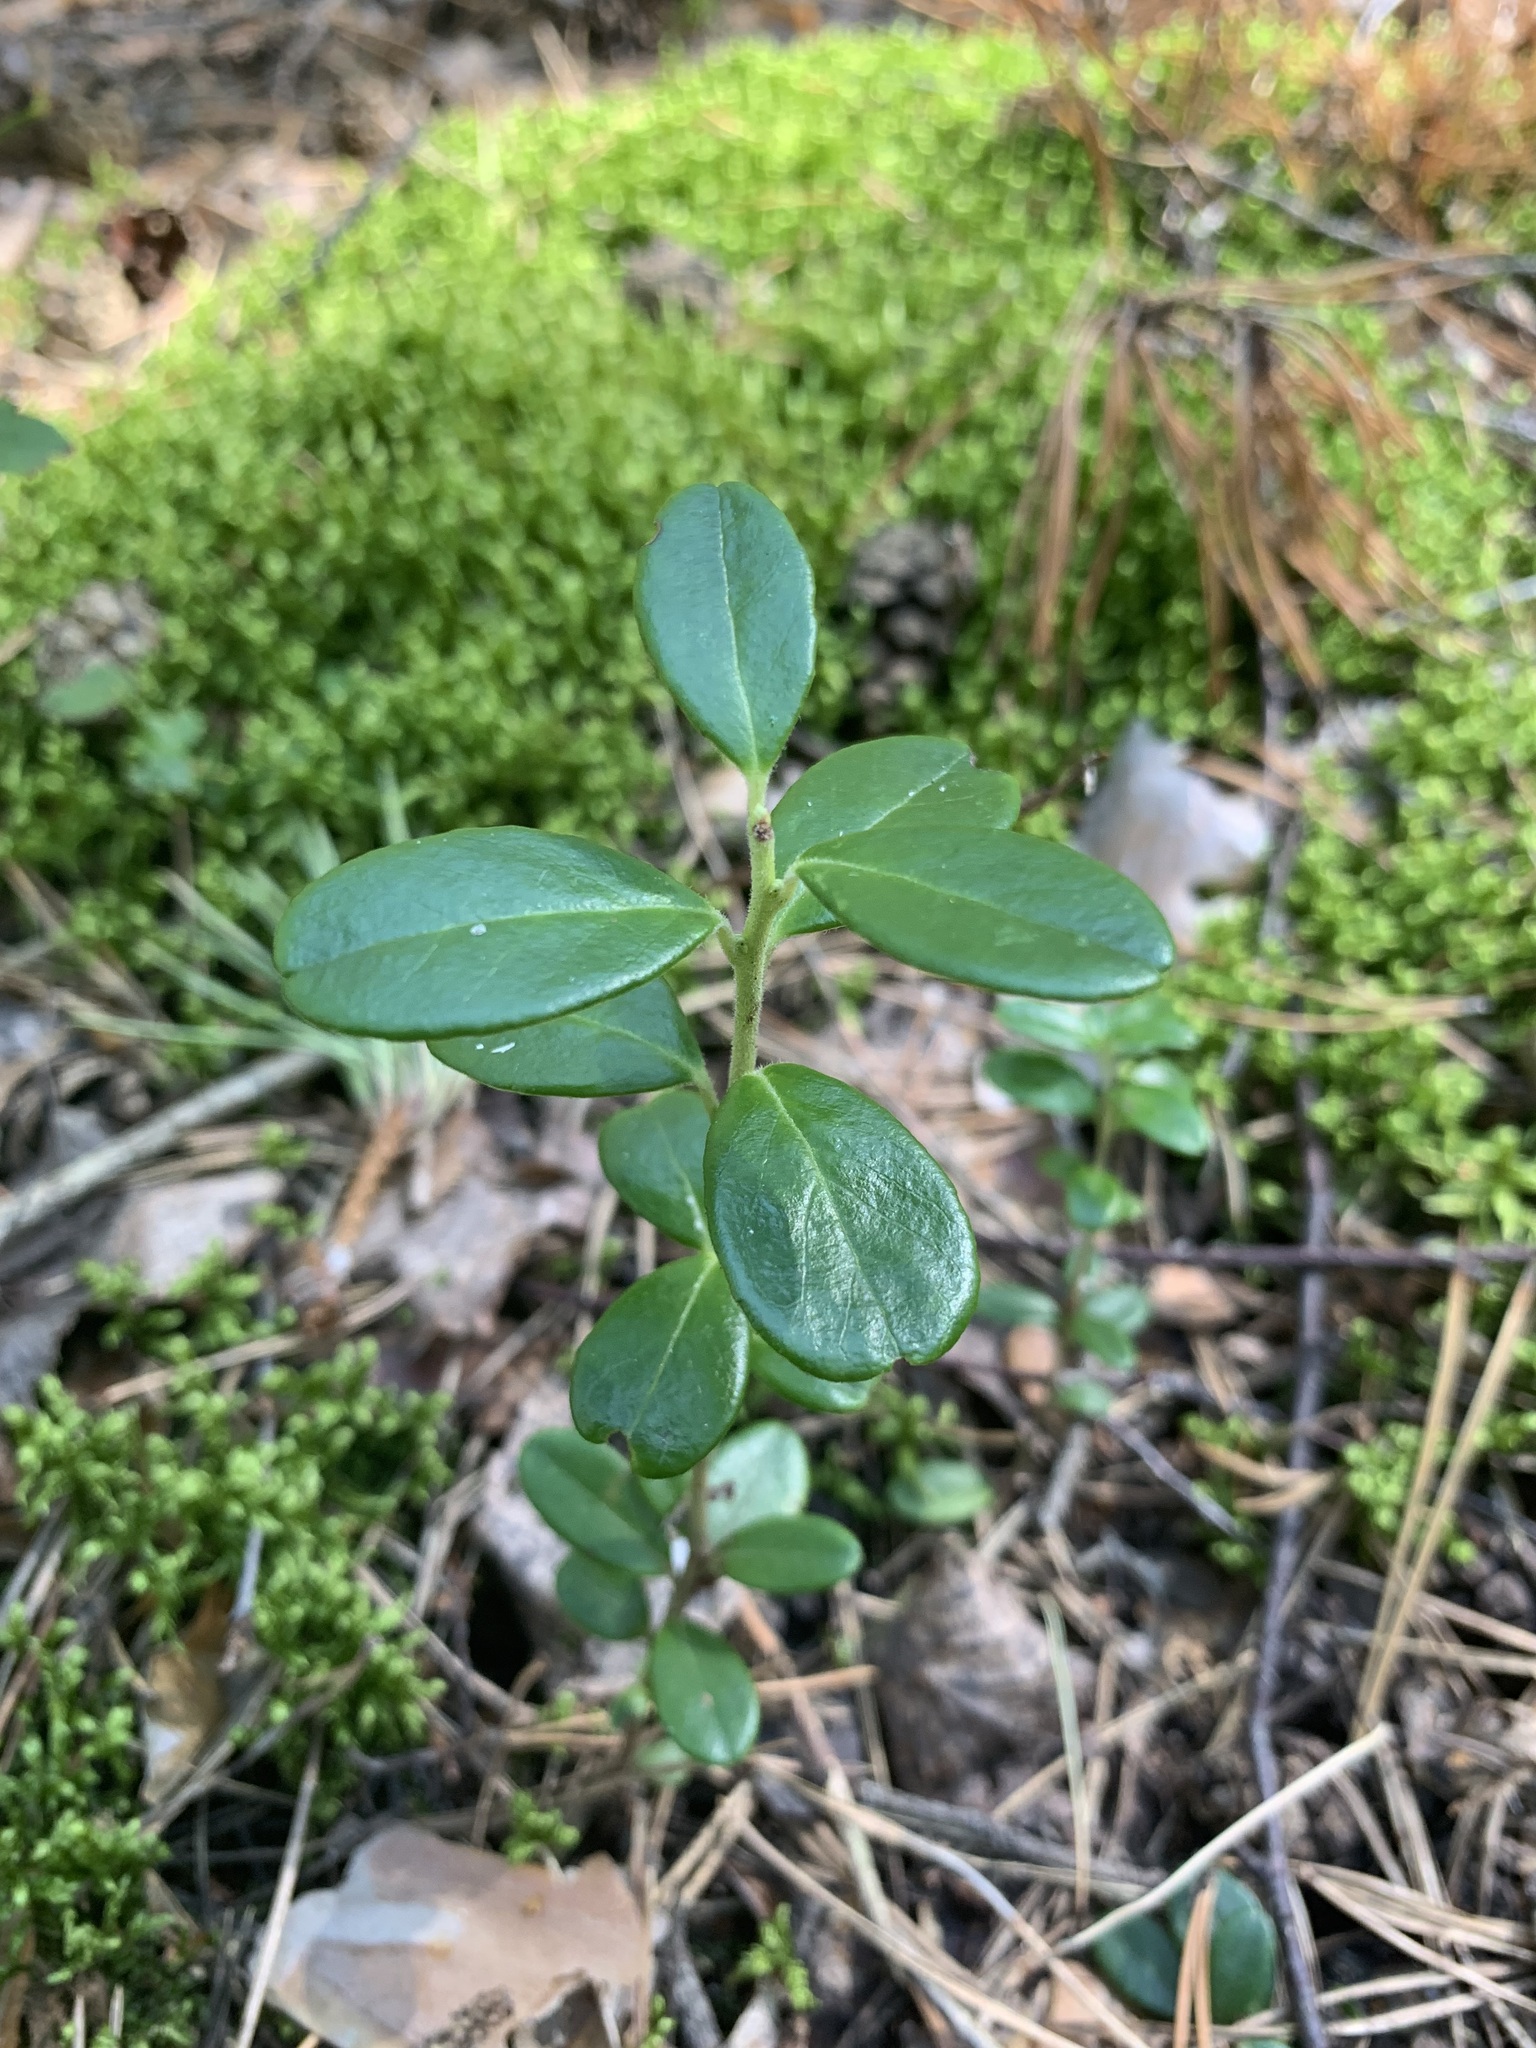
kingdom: Plantae
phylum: Tracheophyta
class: Magnoliopsida
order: Ericales
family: Ericaceae
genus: Vaccinium
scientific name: Vaccinium vitis-idaea
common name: Cowberry
